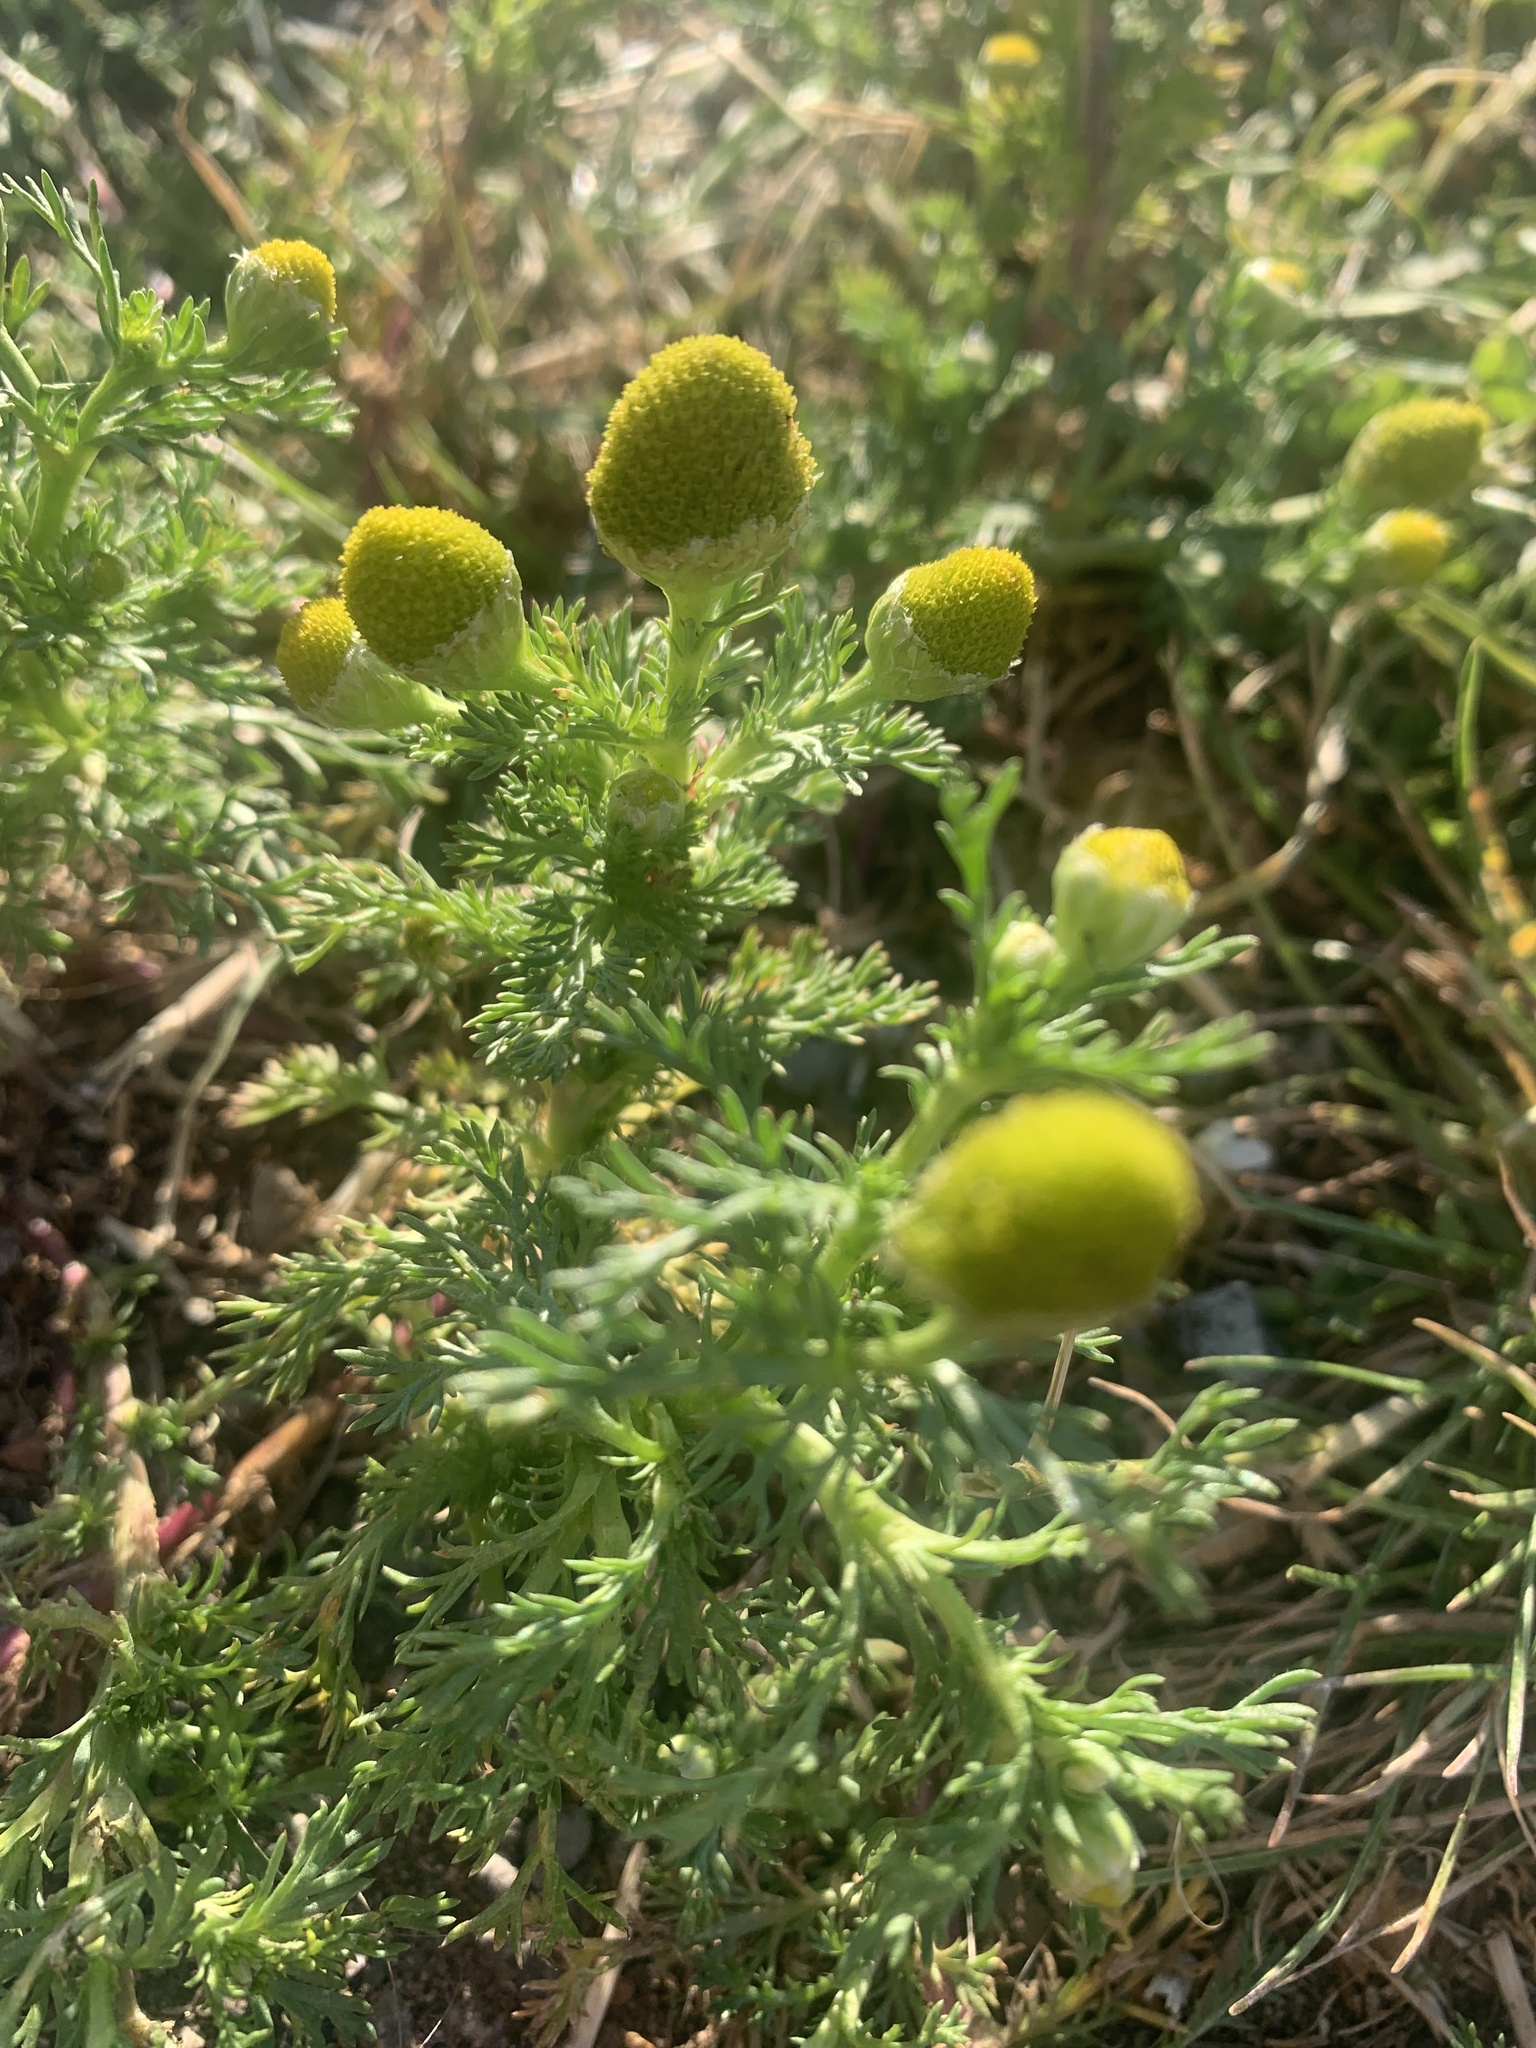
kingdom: Plantae
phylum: Tracheophyta
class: Magnoliopsida
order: Asterales
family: Asteraceae
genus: Matricaria
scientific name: Matricaria discoidea
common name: Disc mayweed
